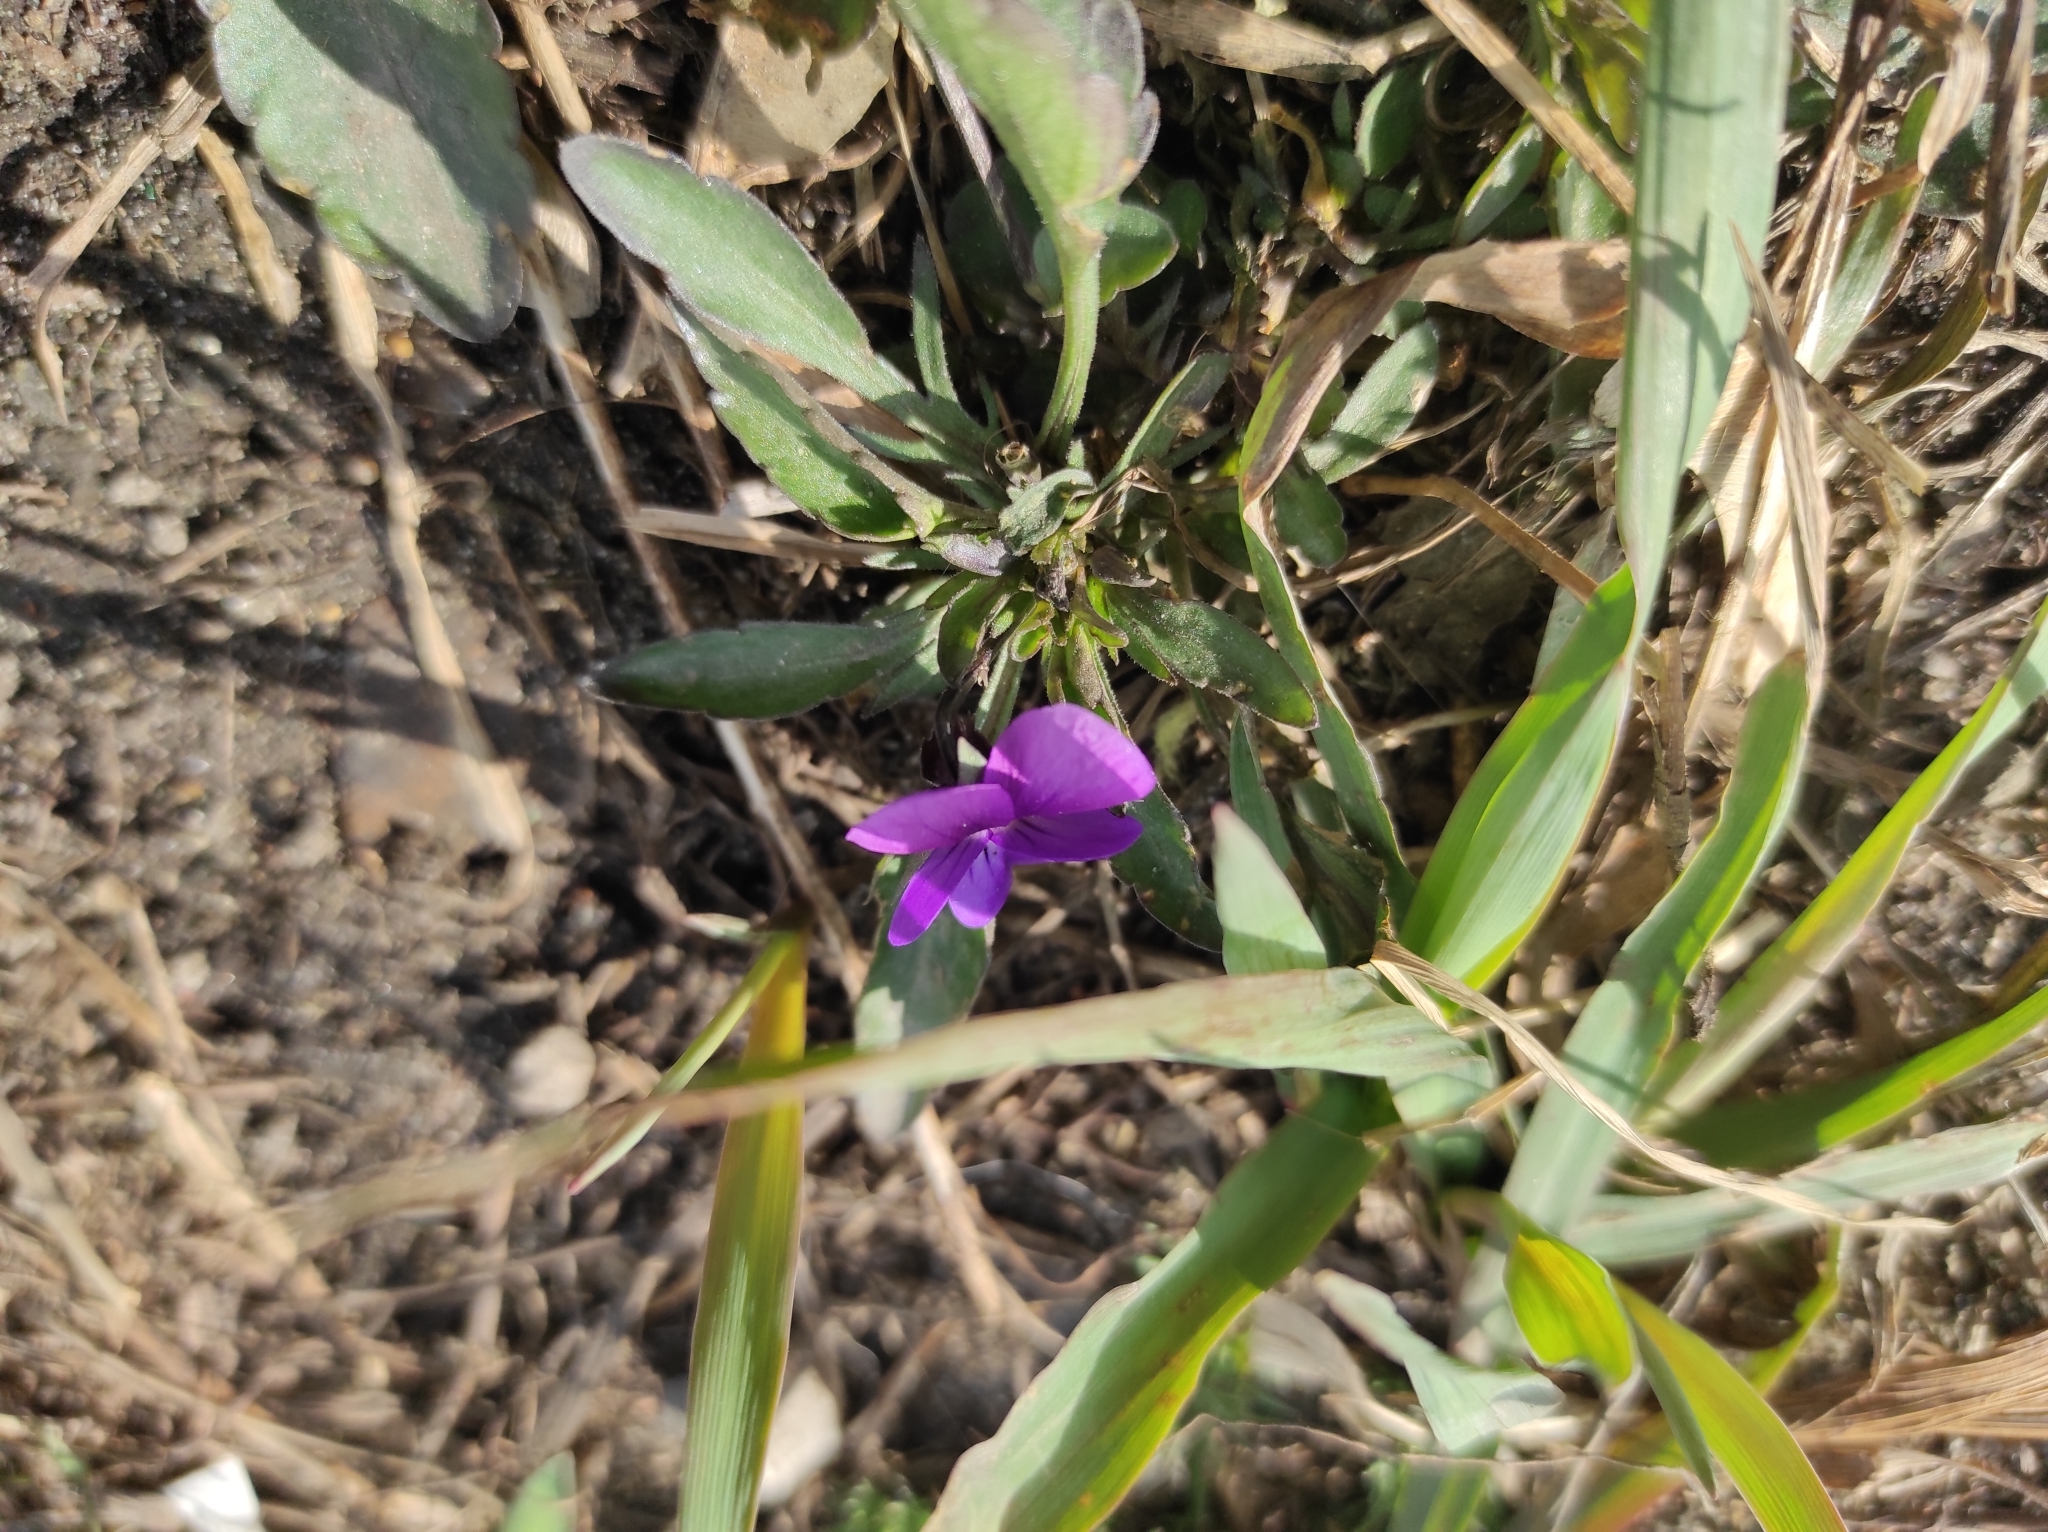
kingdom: Plantae
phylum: Tracheophyta
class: Magnoliopsida
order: Malpighiales
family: Violaceae
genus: Viola
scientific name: Viola tricolor
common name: Pansy
